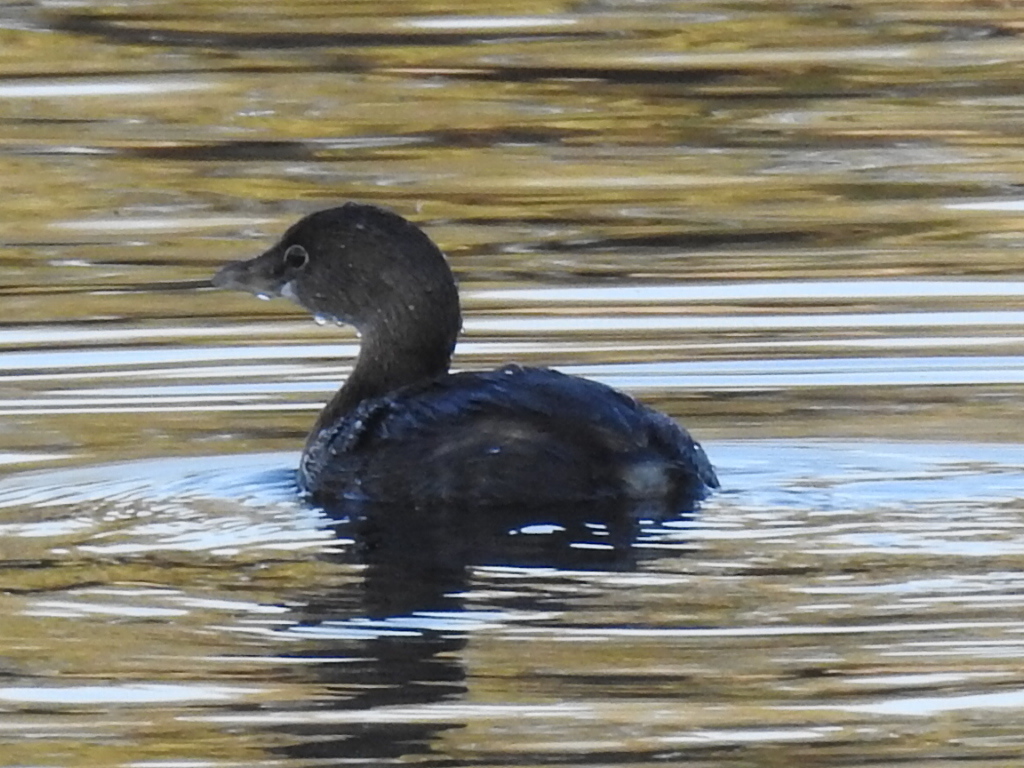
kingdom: Animalia
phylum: Chordata
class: Aves
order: Podicipediformes
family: Podicipedidae
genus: Podilymbus
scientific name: Podilymbus podiceps
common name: Pied-billed grebe
